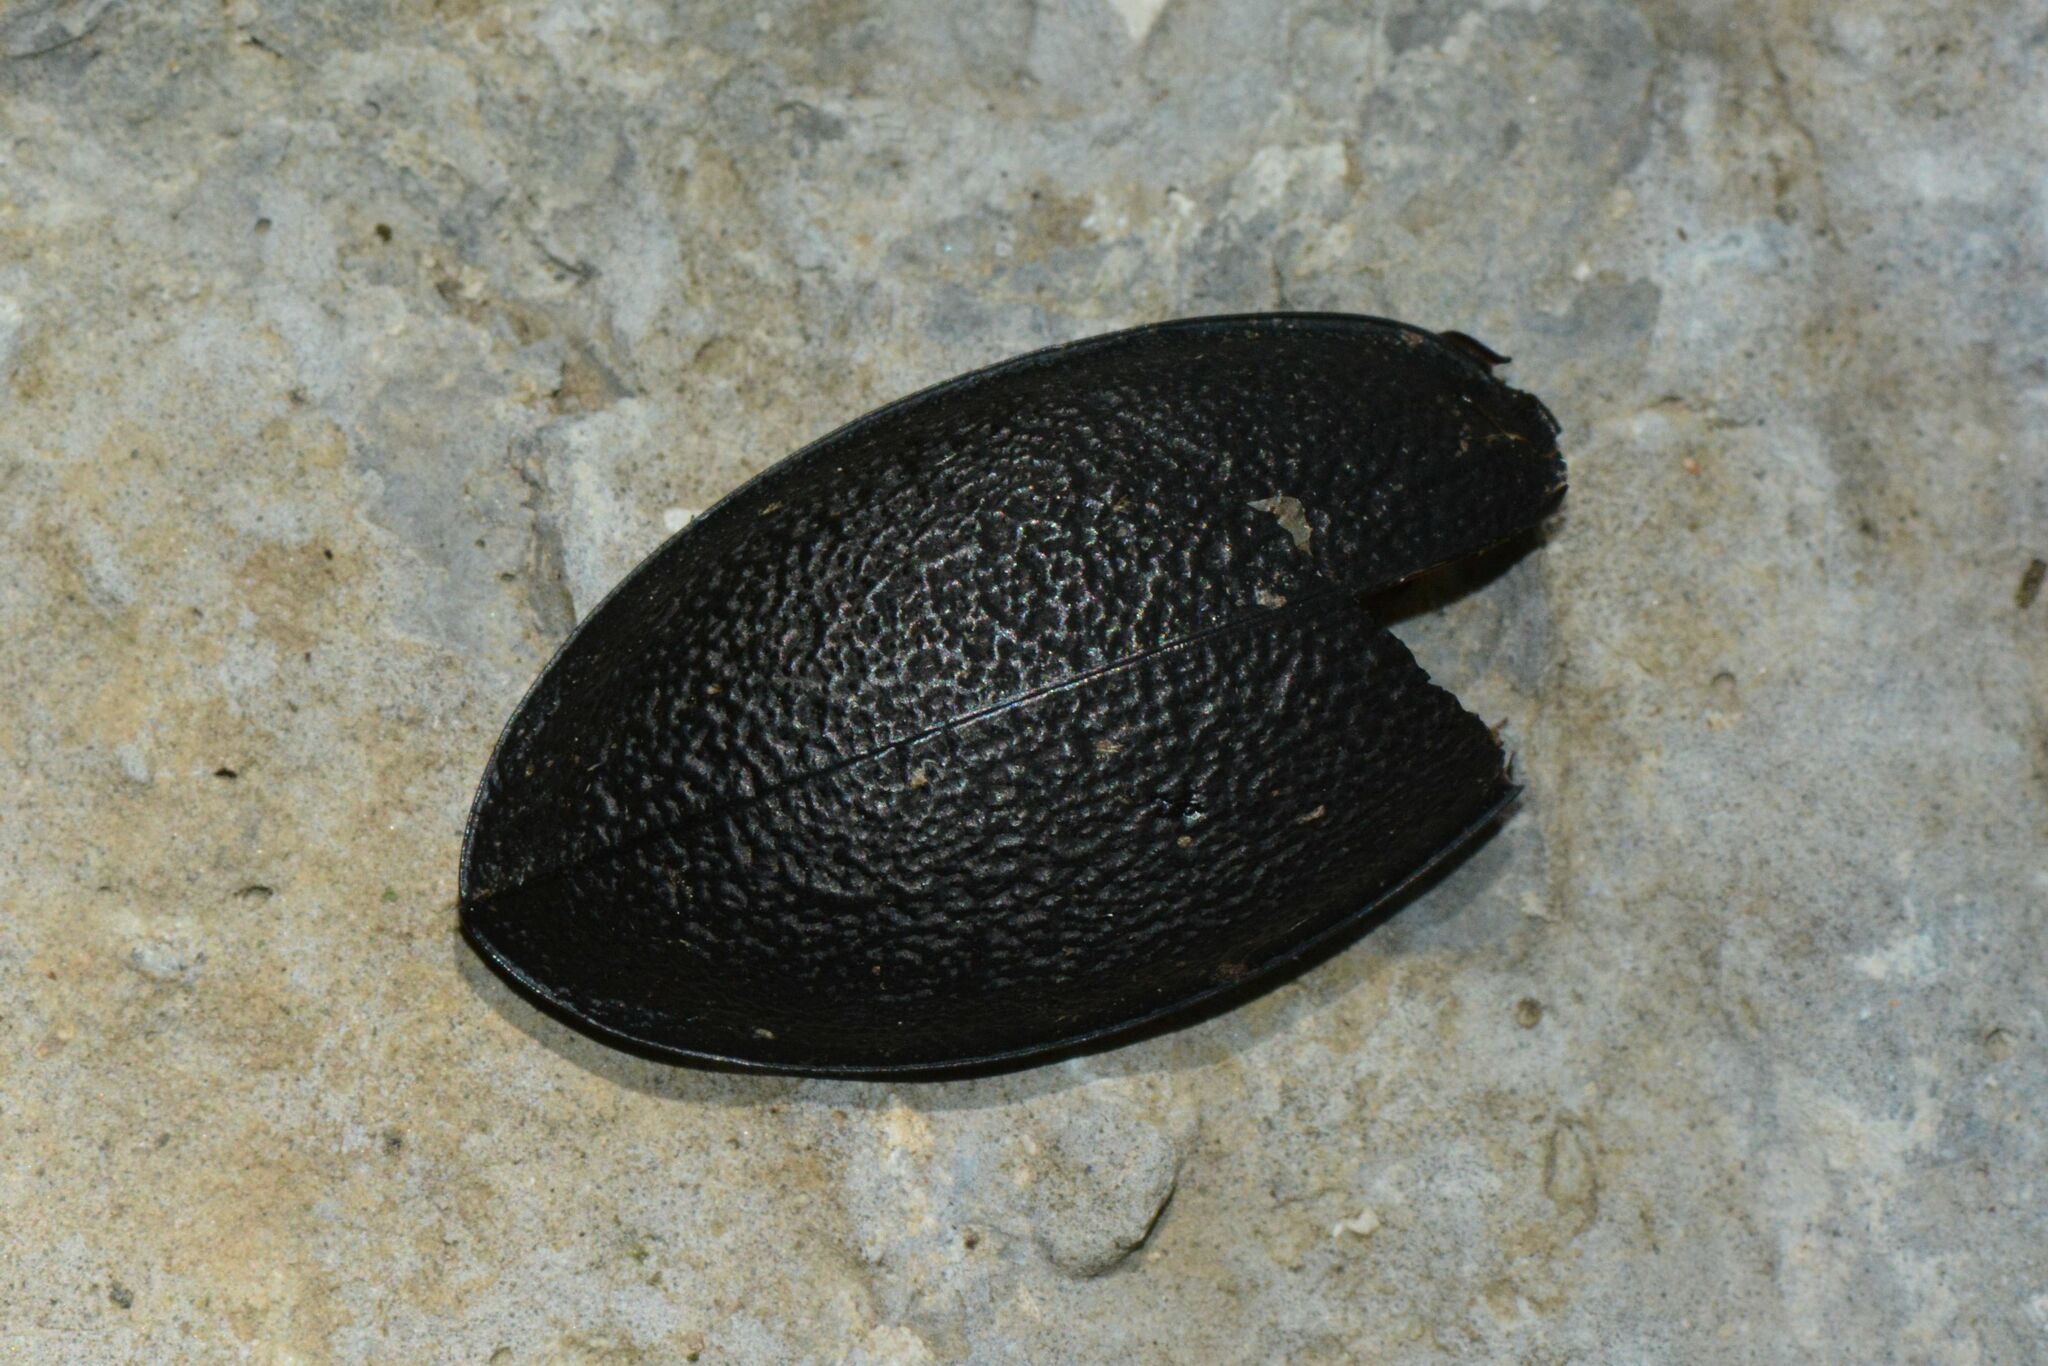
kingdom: Animalia
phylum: Arthropoda
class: Insecta
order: Coleoptera
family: Carabidae
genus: Carabus
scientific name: Carabus coriaceus
